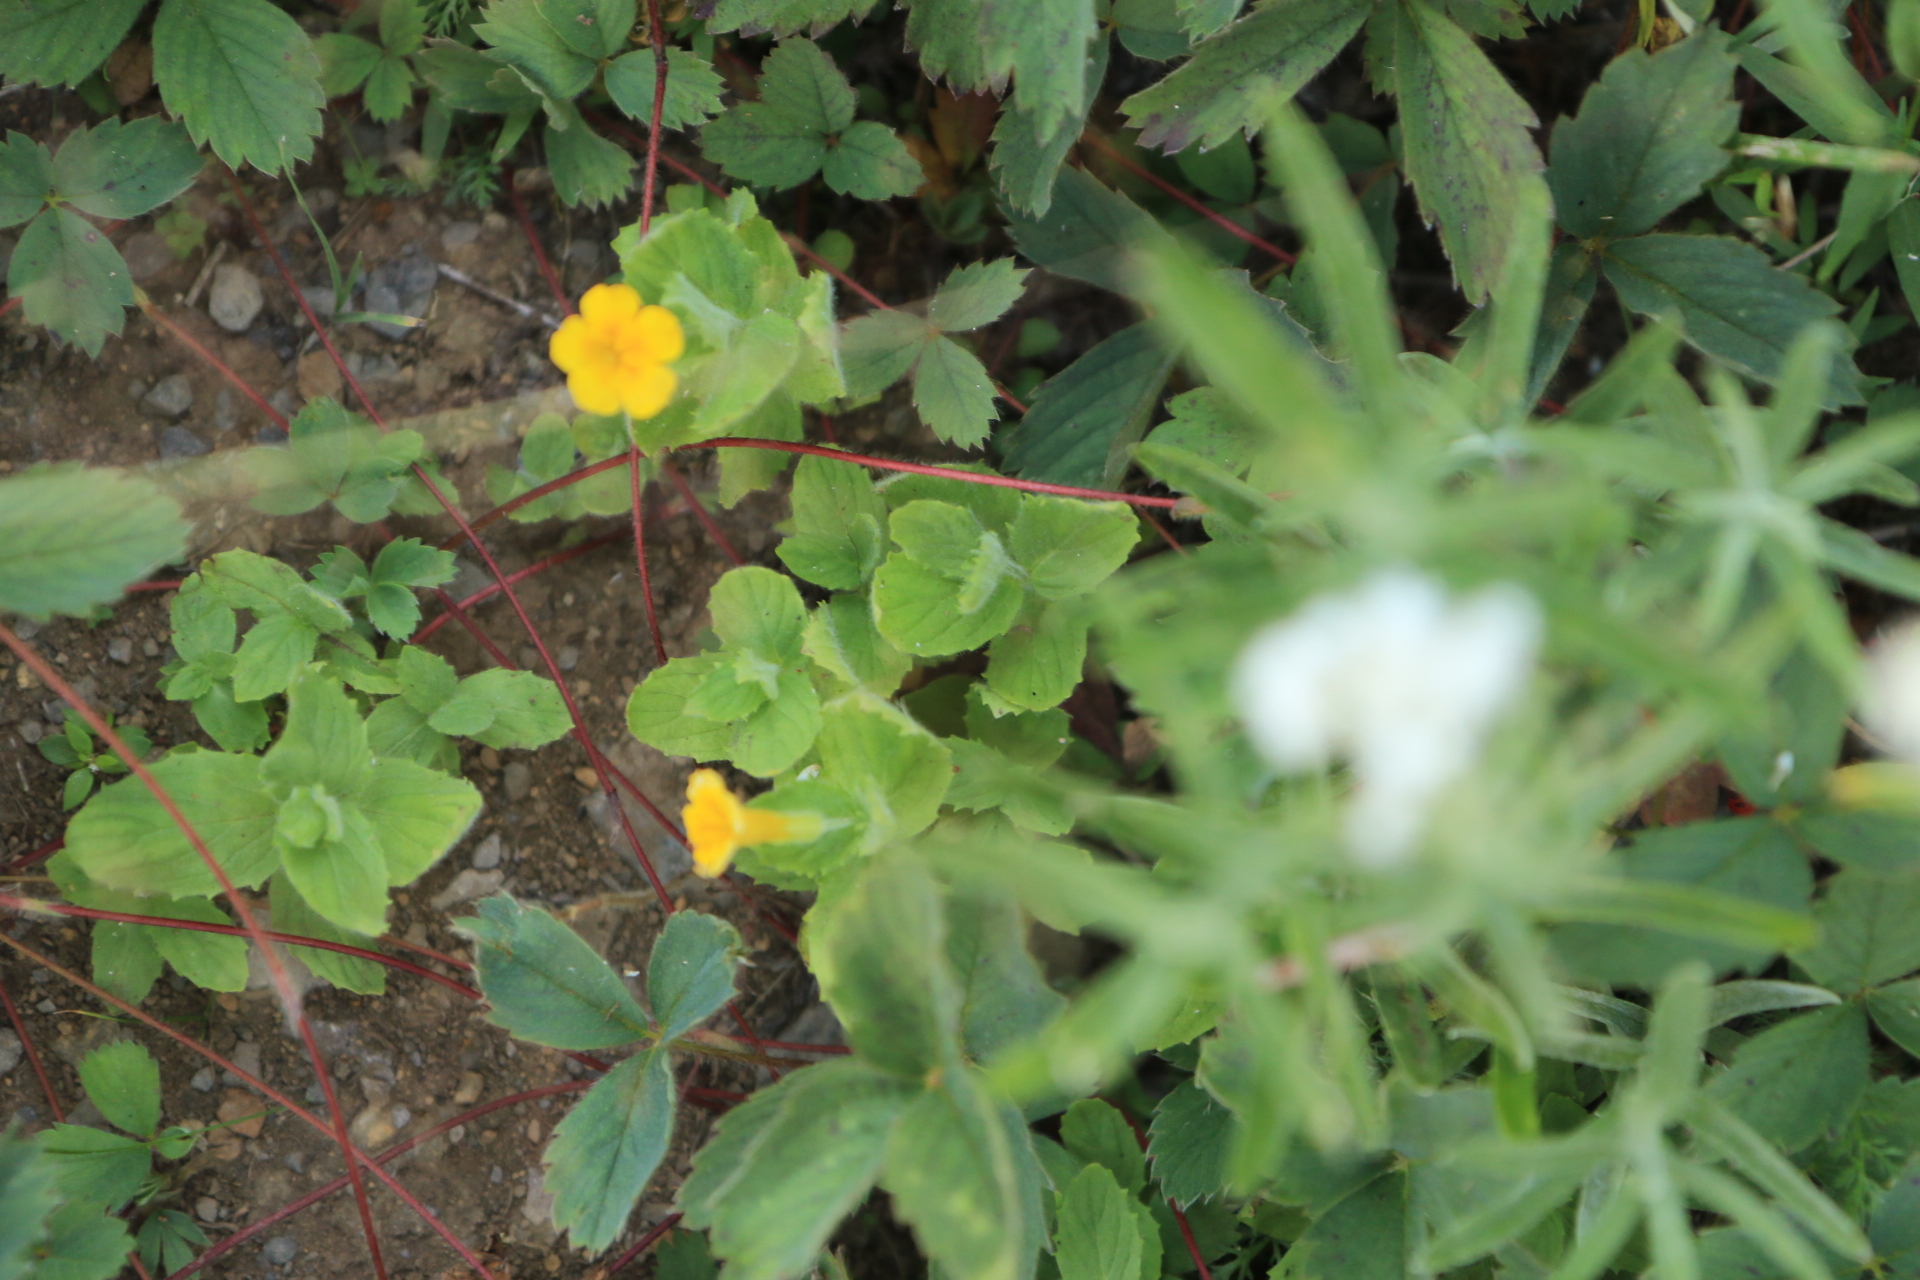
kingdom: Plantae
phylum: Tracheophyta
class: Magnoliopsida
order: Lamiales
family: Phrymaceae
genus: Erythranthe
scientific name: Erythranthe moschata
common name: Muskflower
